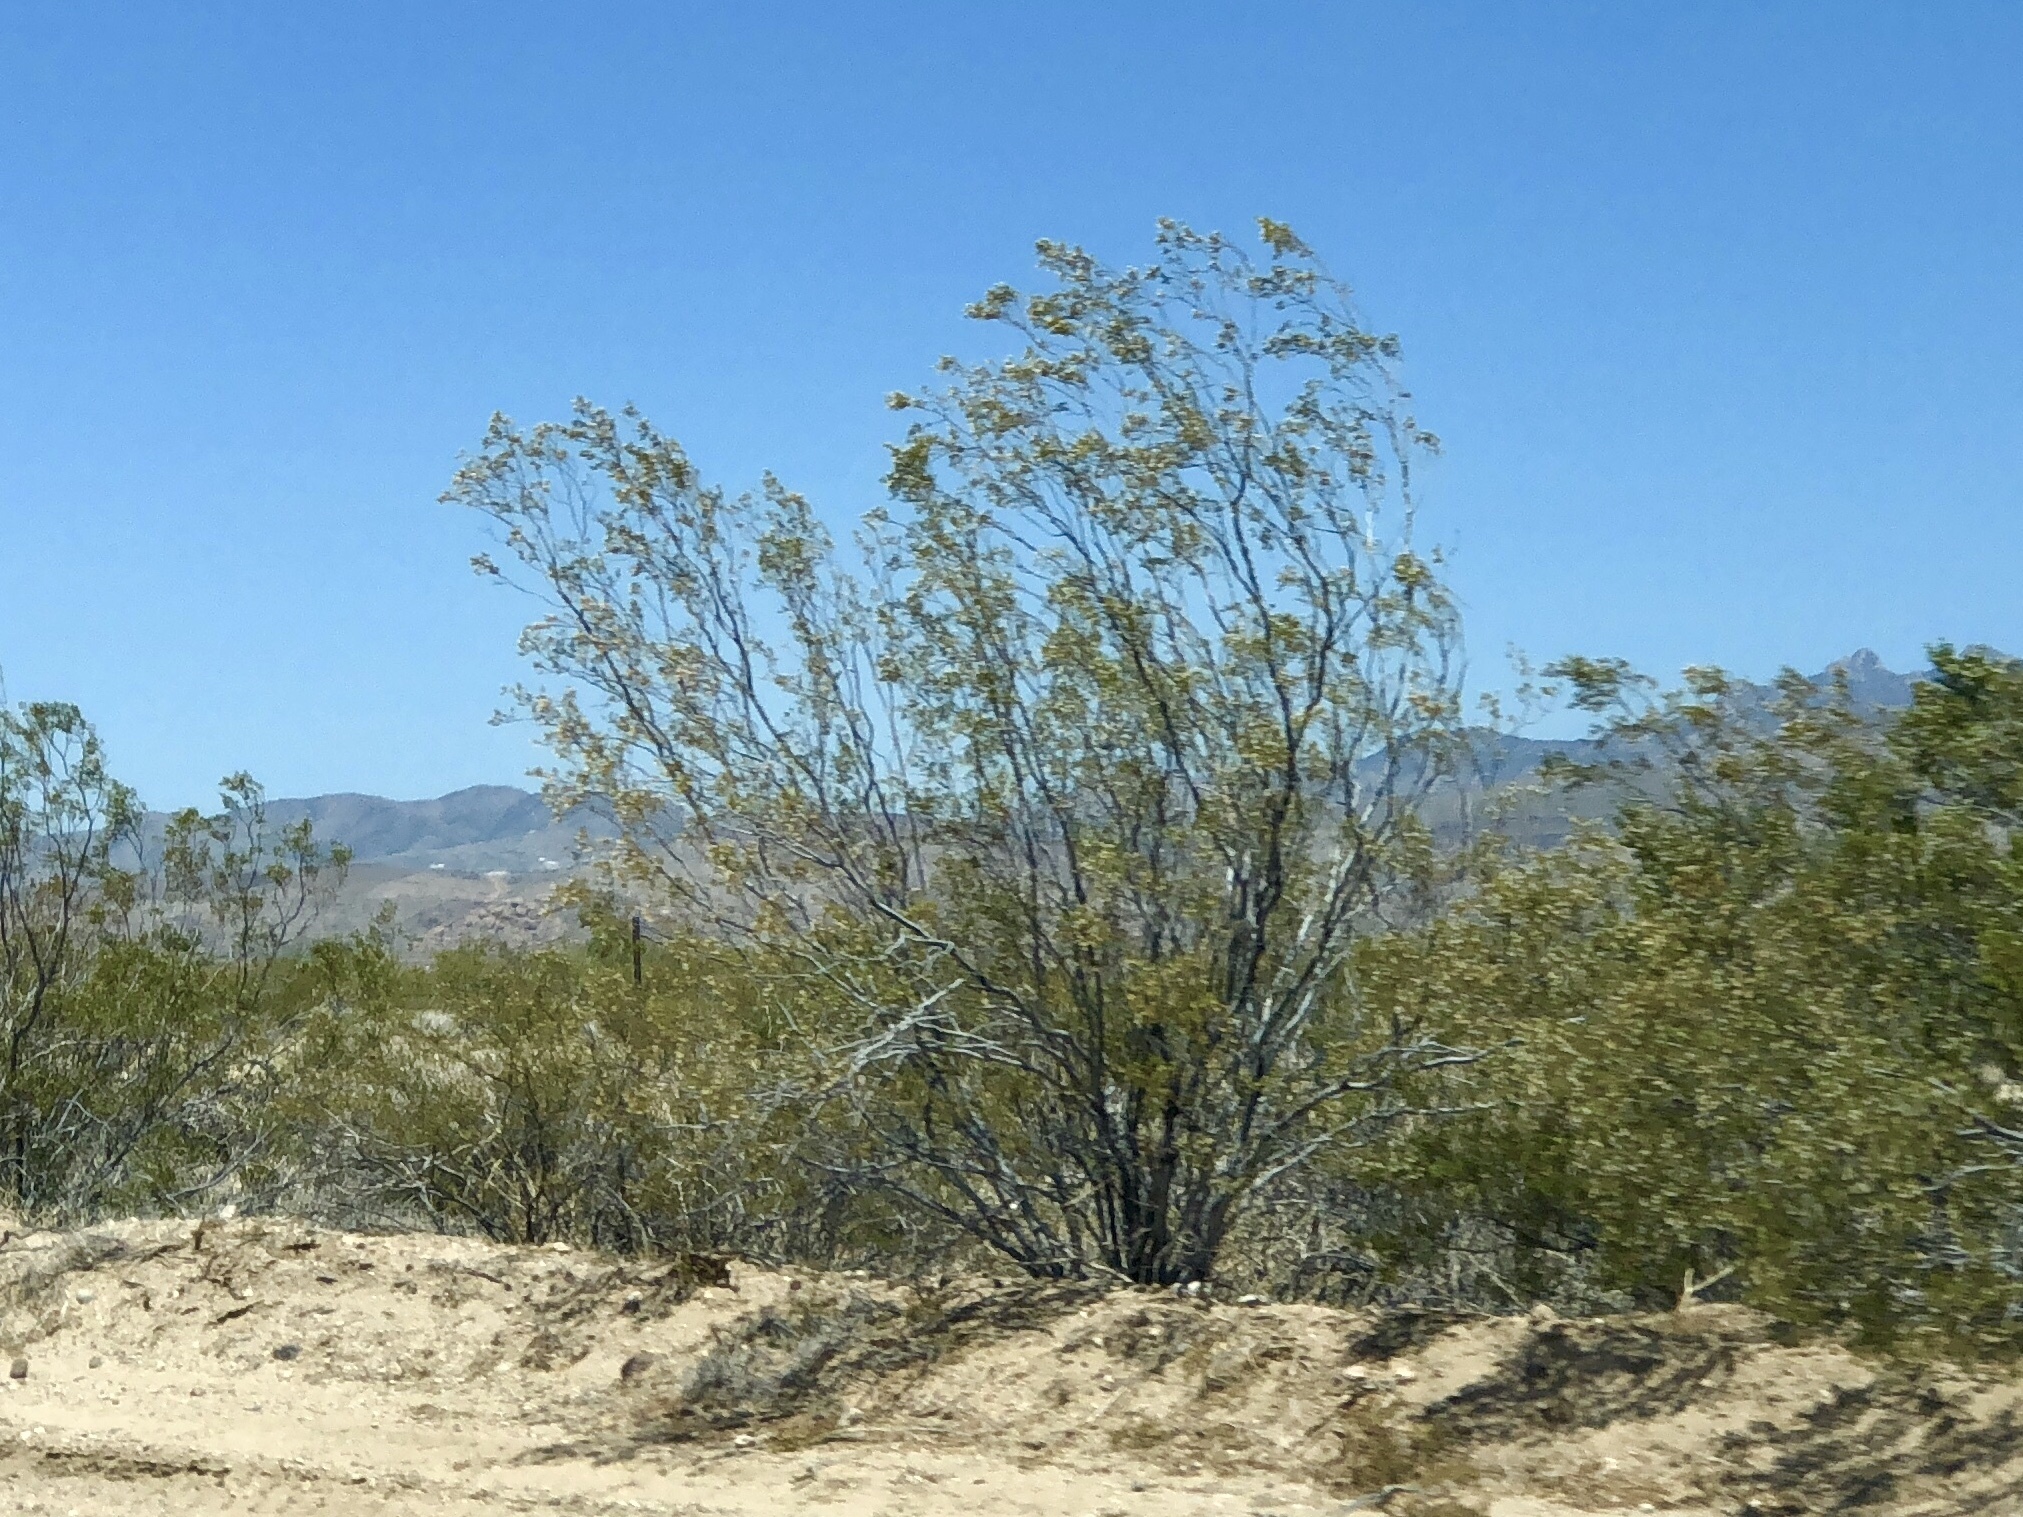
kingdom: Plantae
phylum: Tracheophyta
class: Magnoliopsida
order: Zygophyllales
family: Zygophyllaceae
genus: Larrea
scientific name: Larrea tridentata
